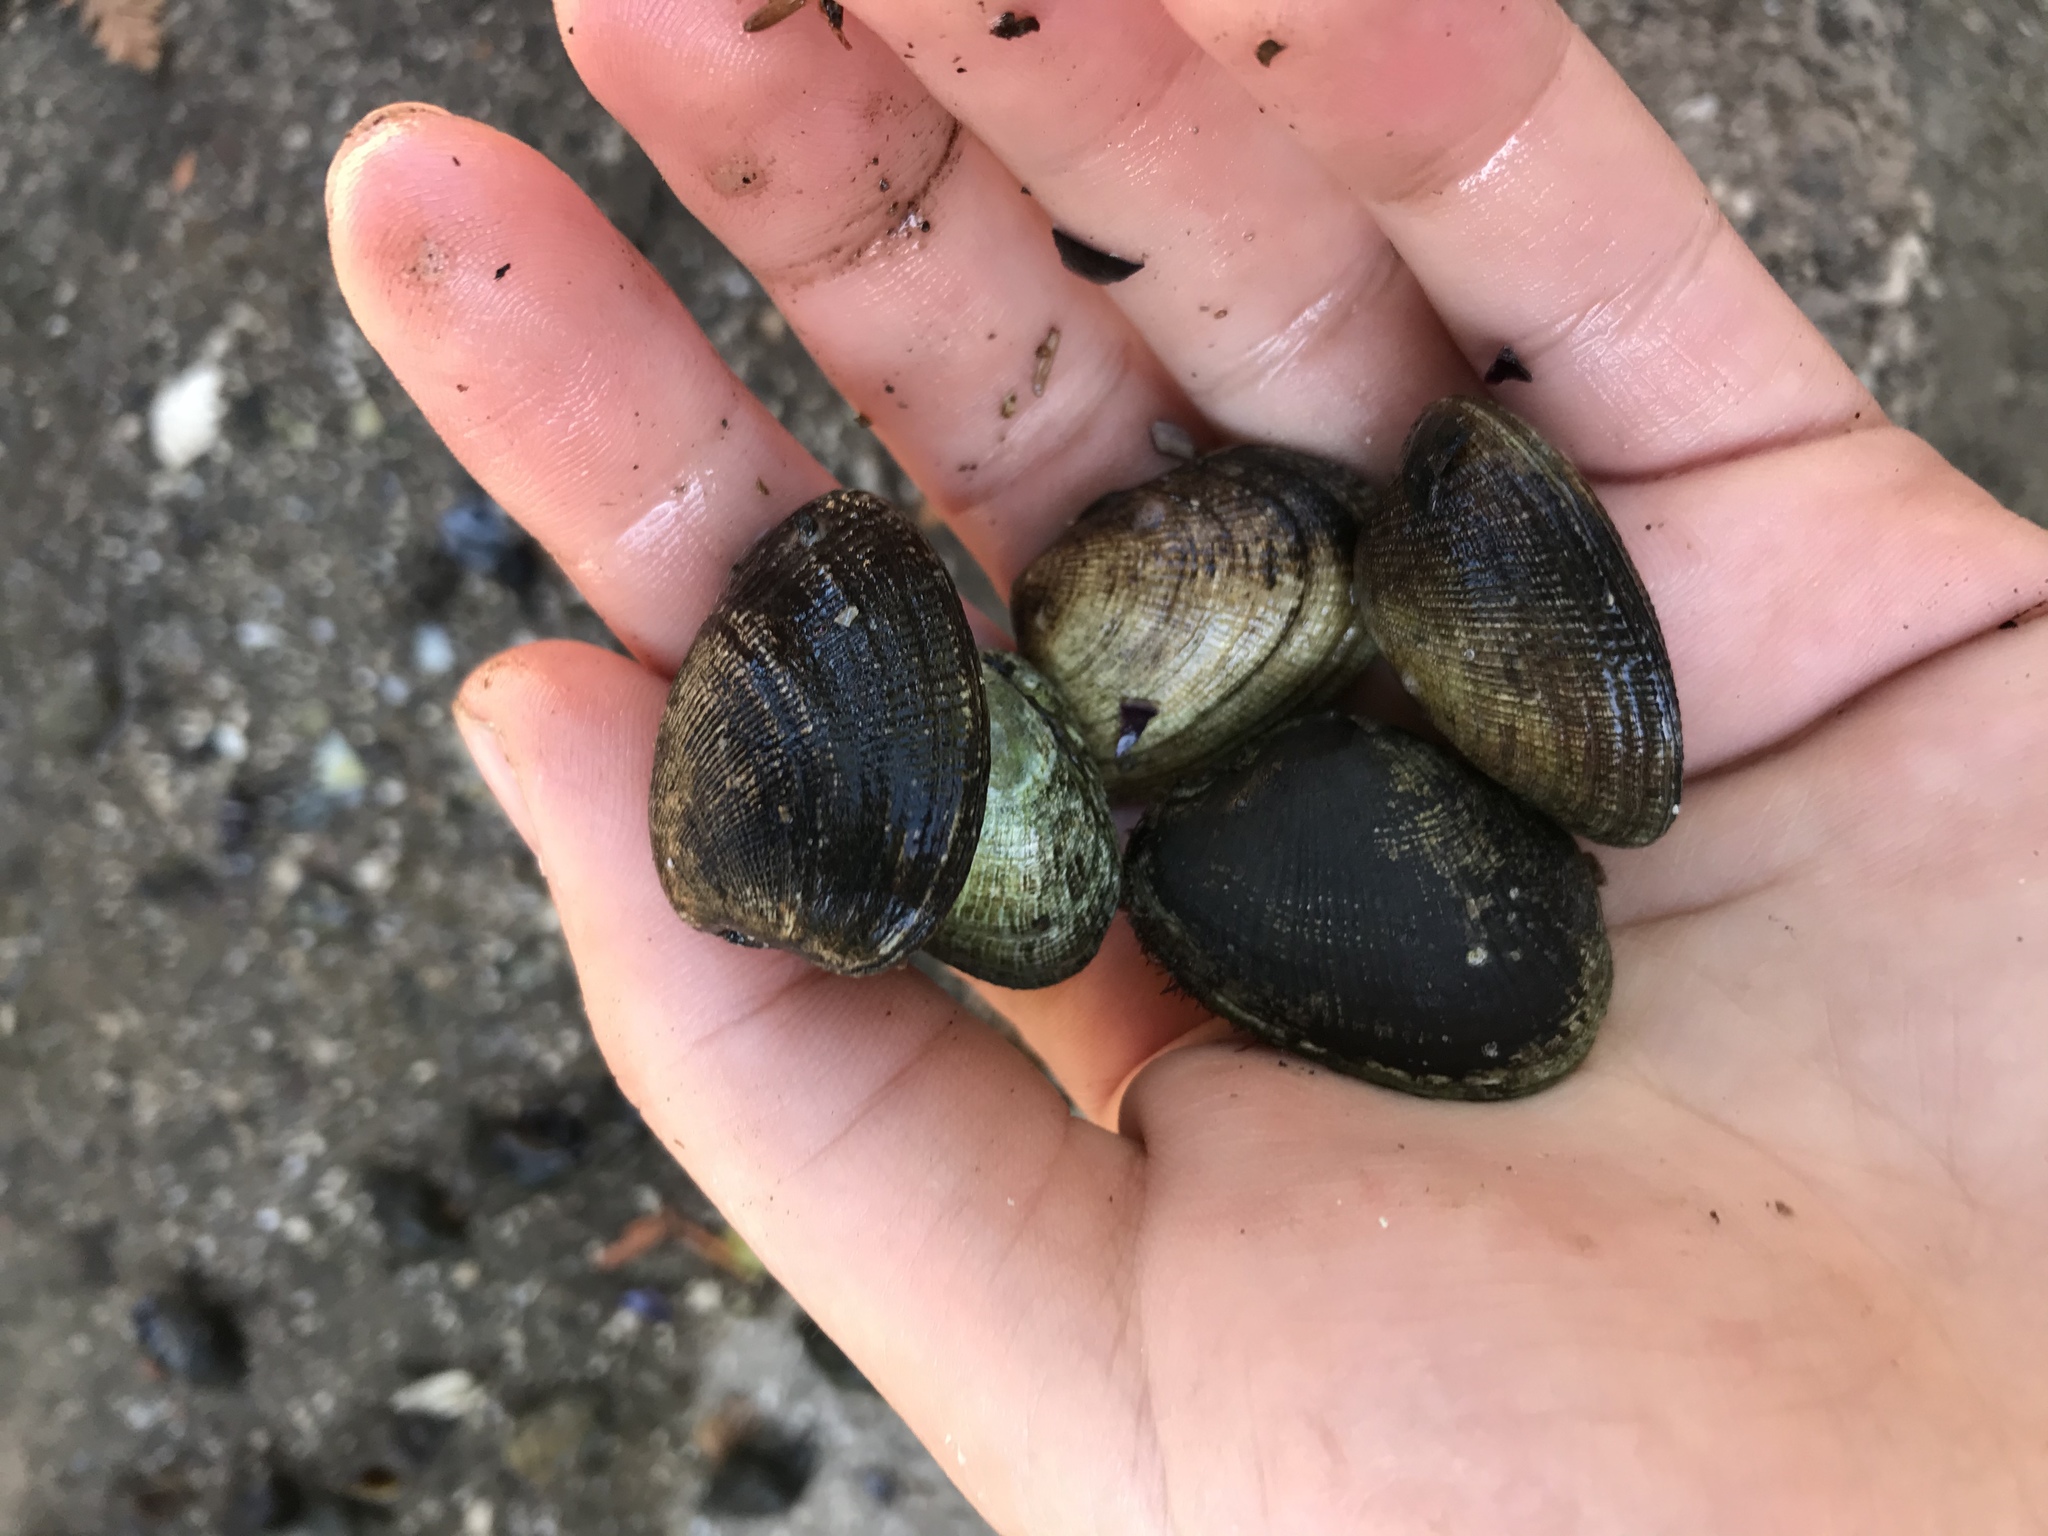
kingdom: Animalia
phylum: Mollusca
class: Bivalvia
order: Venerida
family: Veneridae
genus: Ruditapes
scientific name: Ruditapes philippinarum
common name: Manila clam
